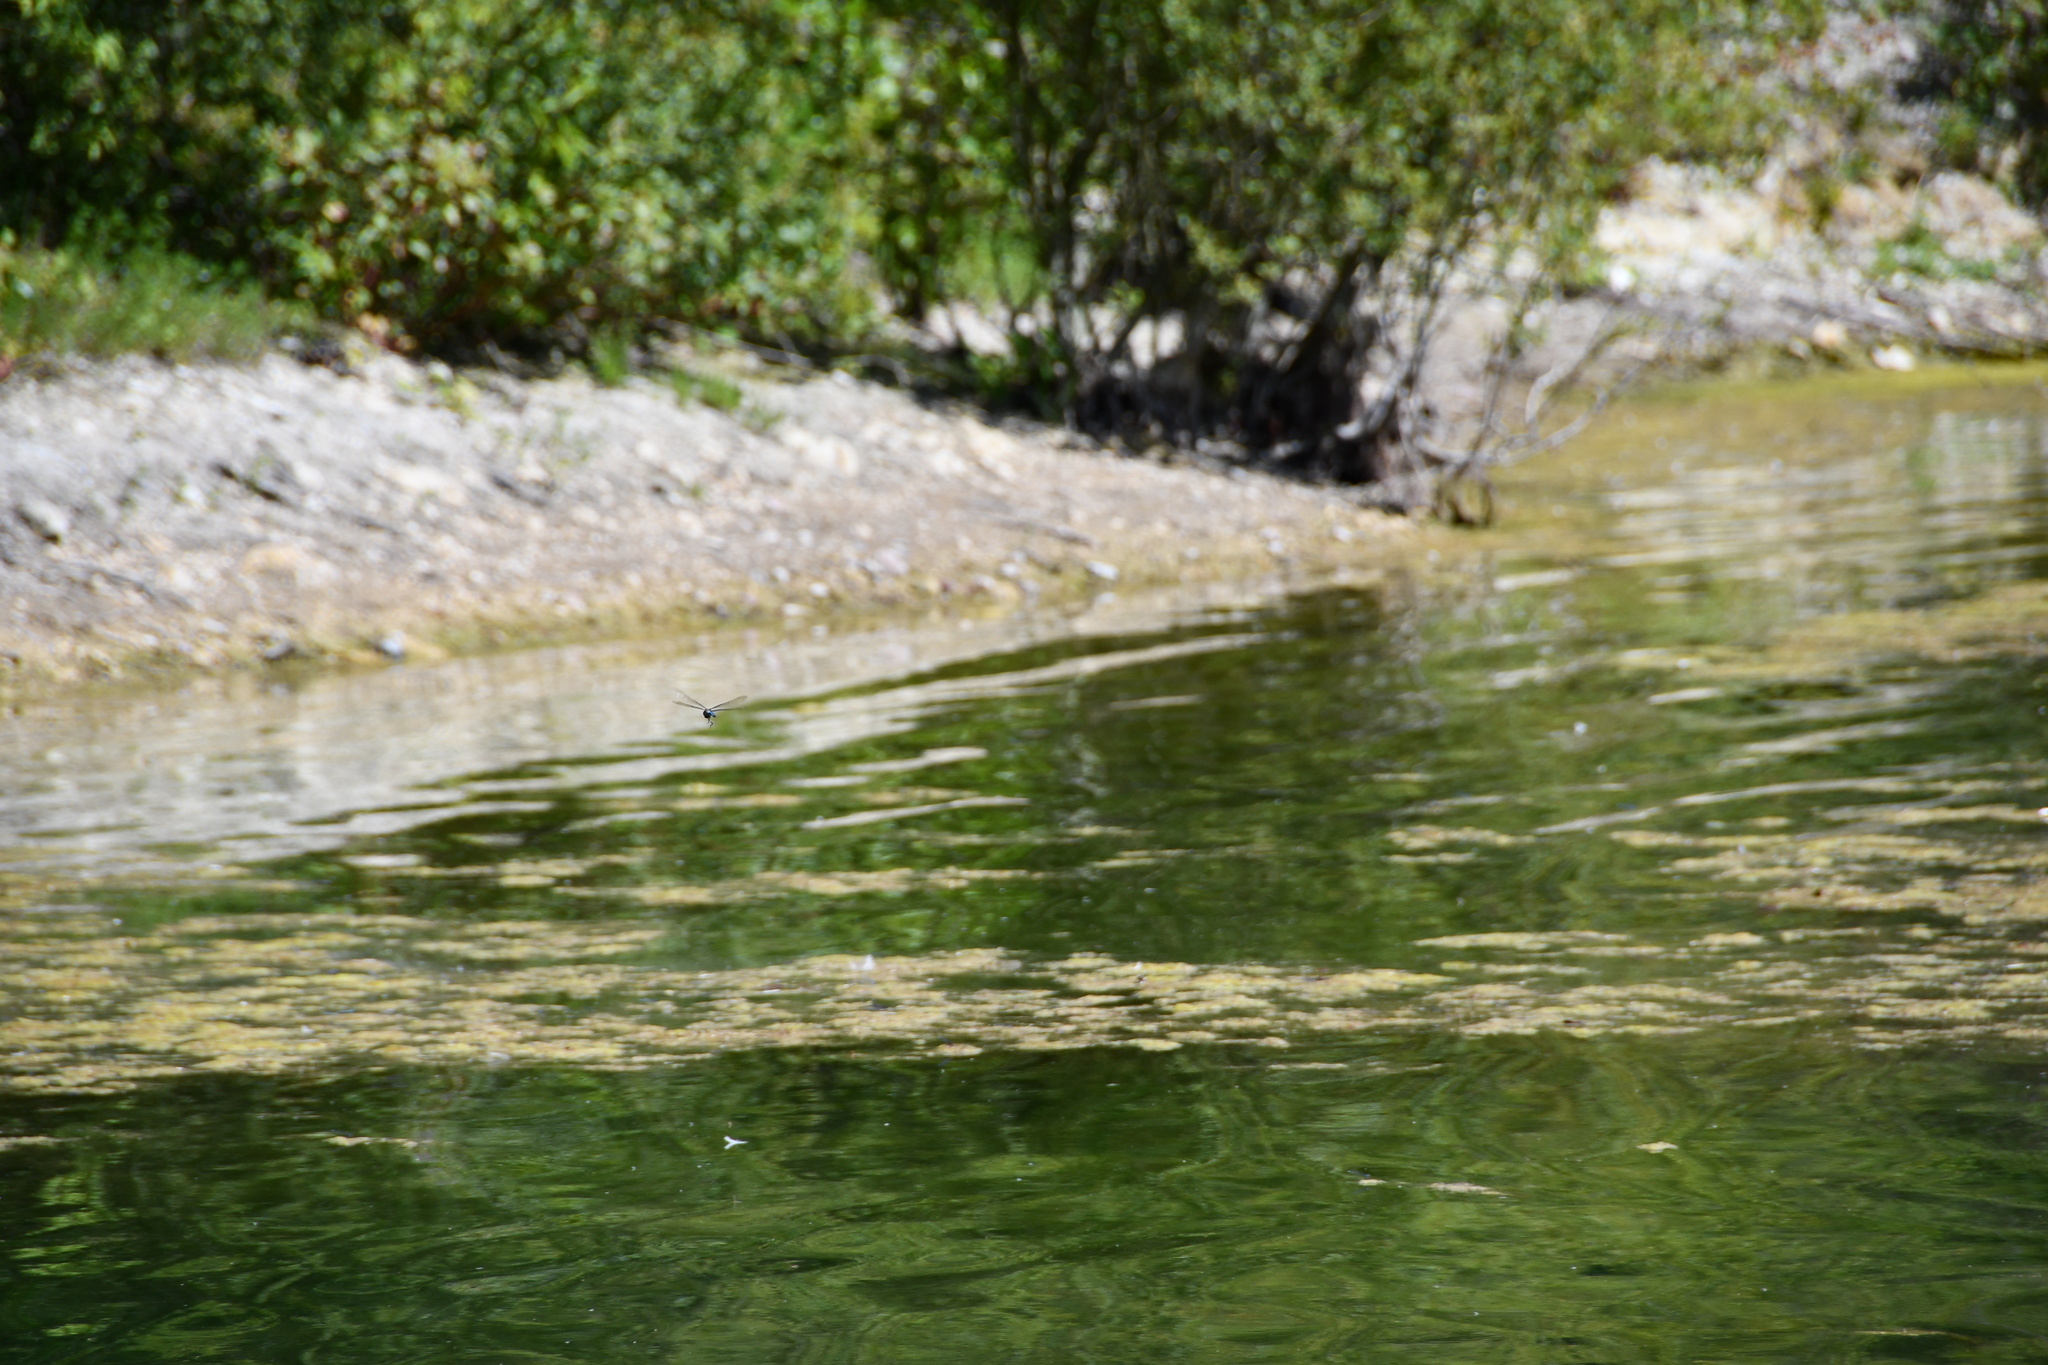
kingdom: Animalia
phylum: Arthropoda
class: Insecta
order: Odonata
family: Aeshnidae
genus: Anax
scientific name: Anax imperator
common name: Emperor dragonfly
